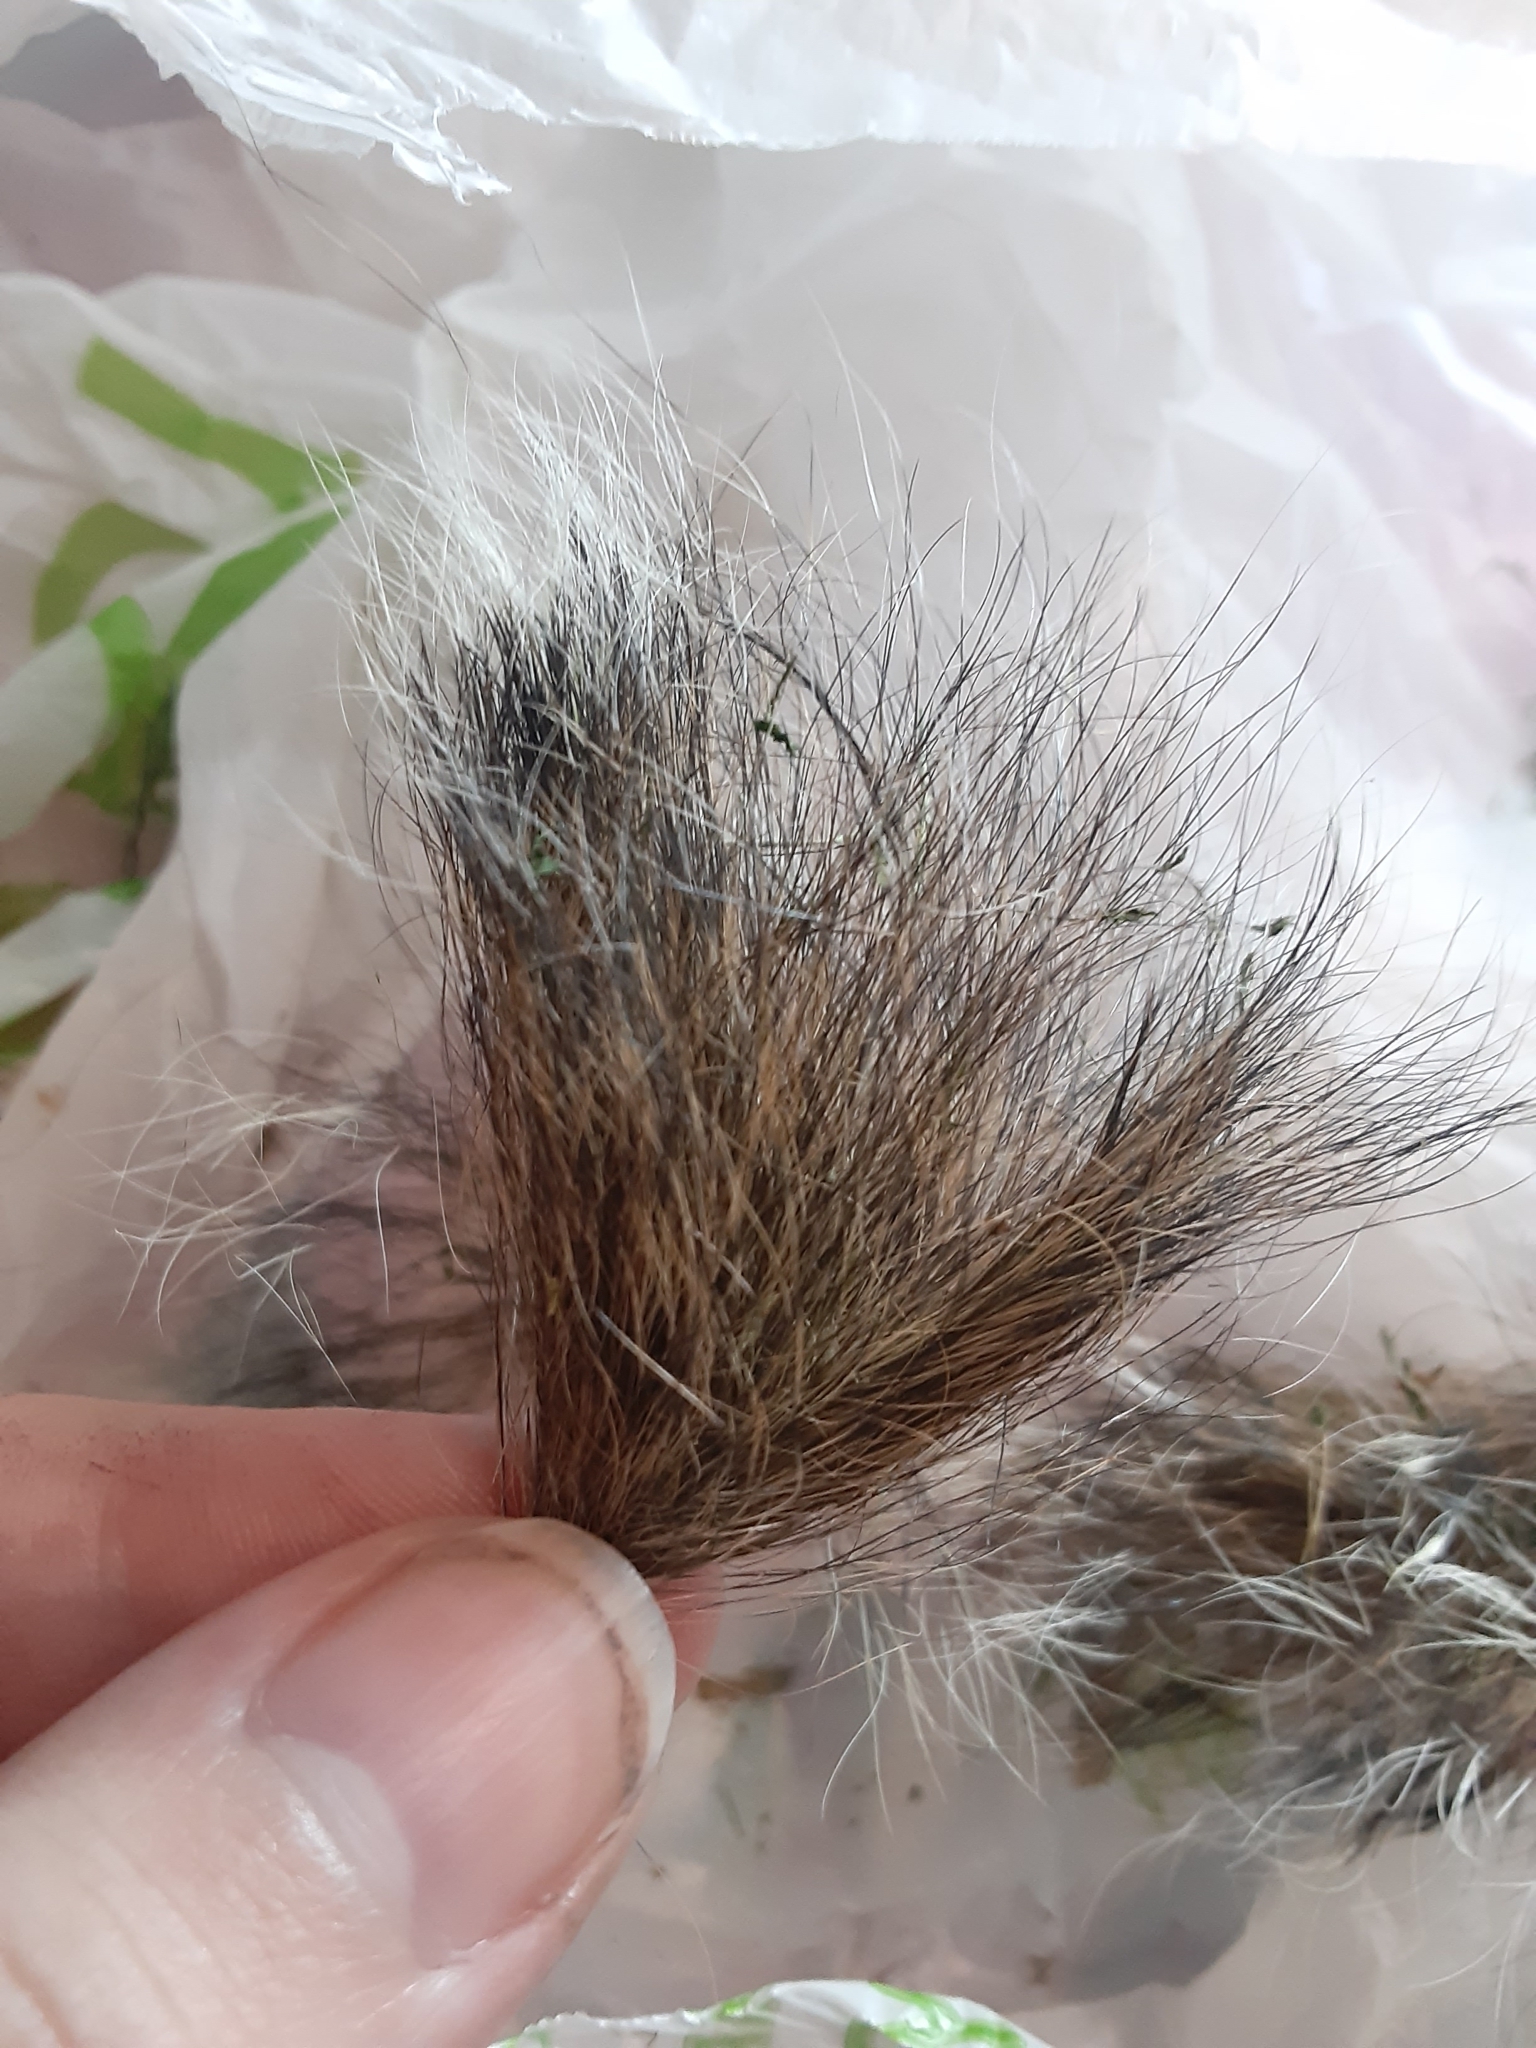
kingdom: Animalia
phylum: Chordata
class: Mammalia
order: Rodentia
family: Sciuridae
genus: Tamiasciurus
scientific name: Tamiasciurus hudsonicus
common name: Red squirrel
